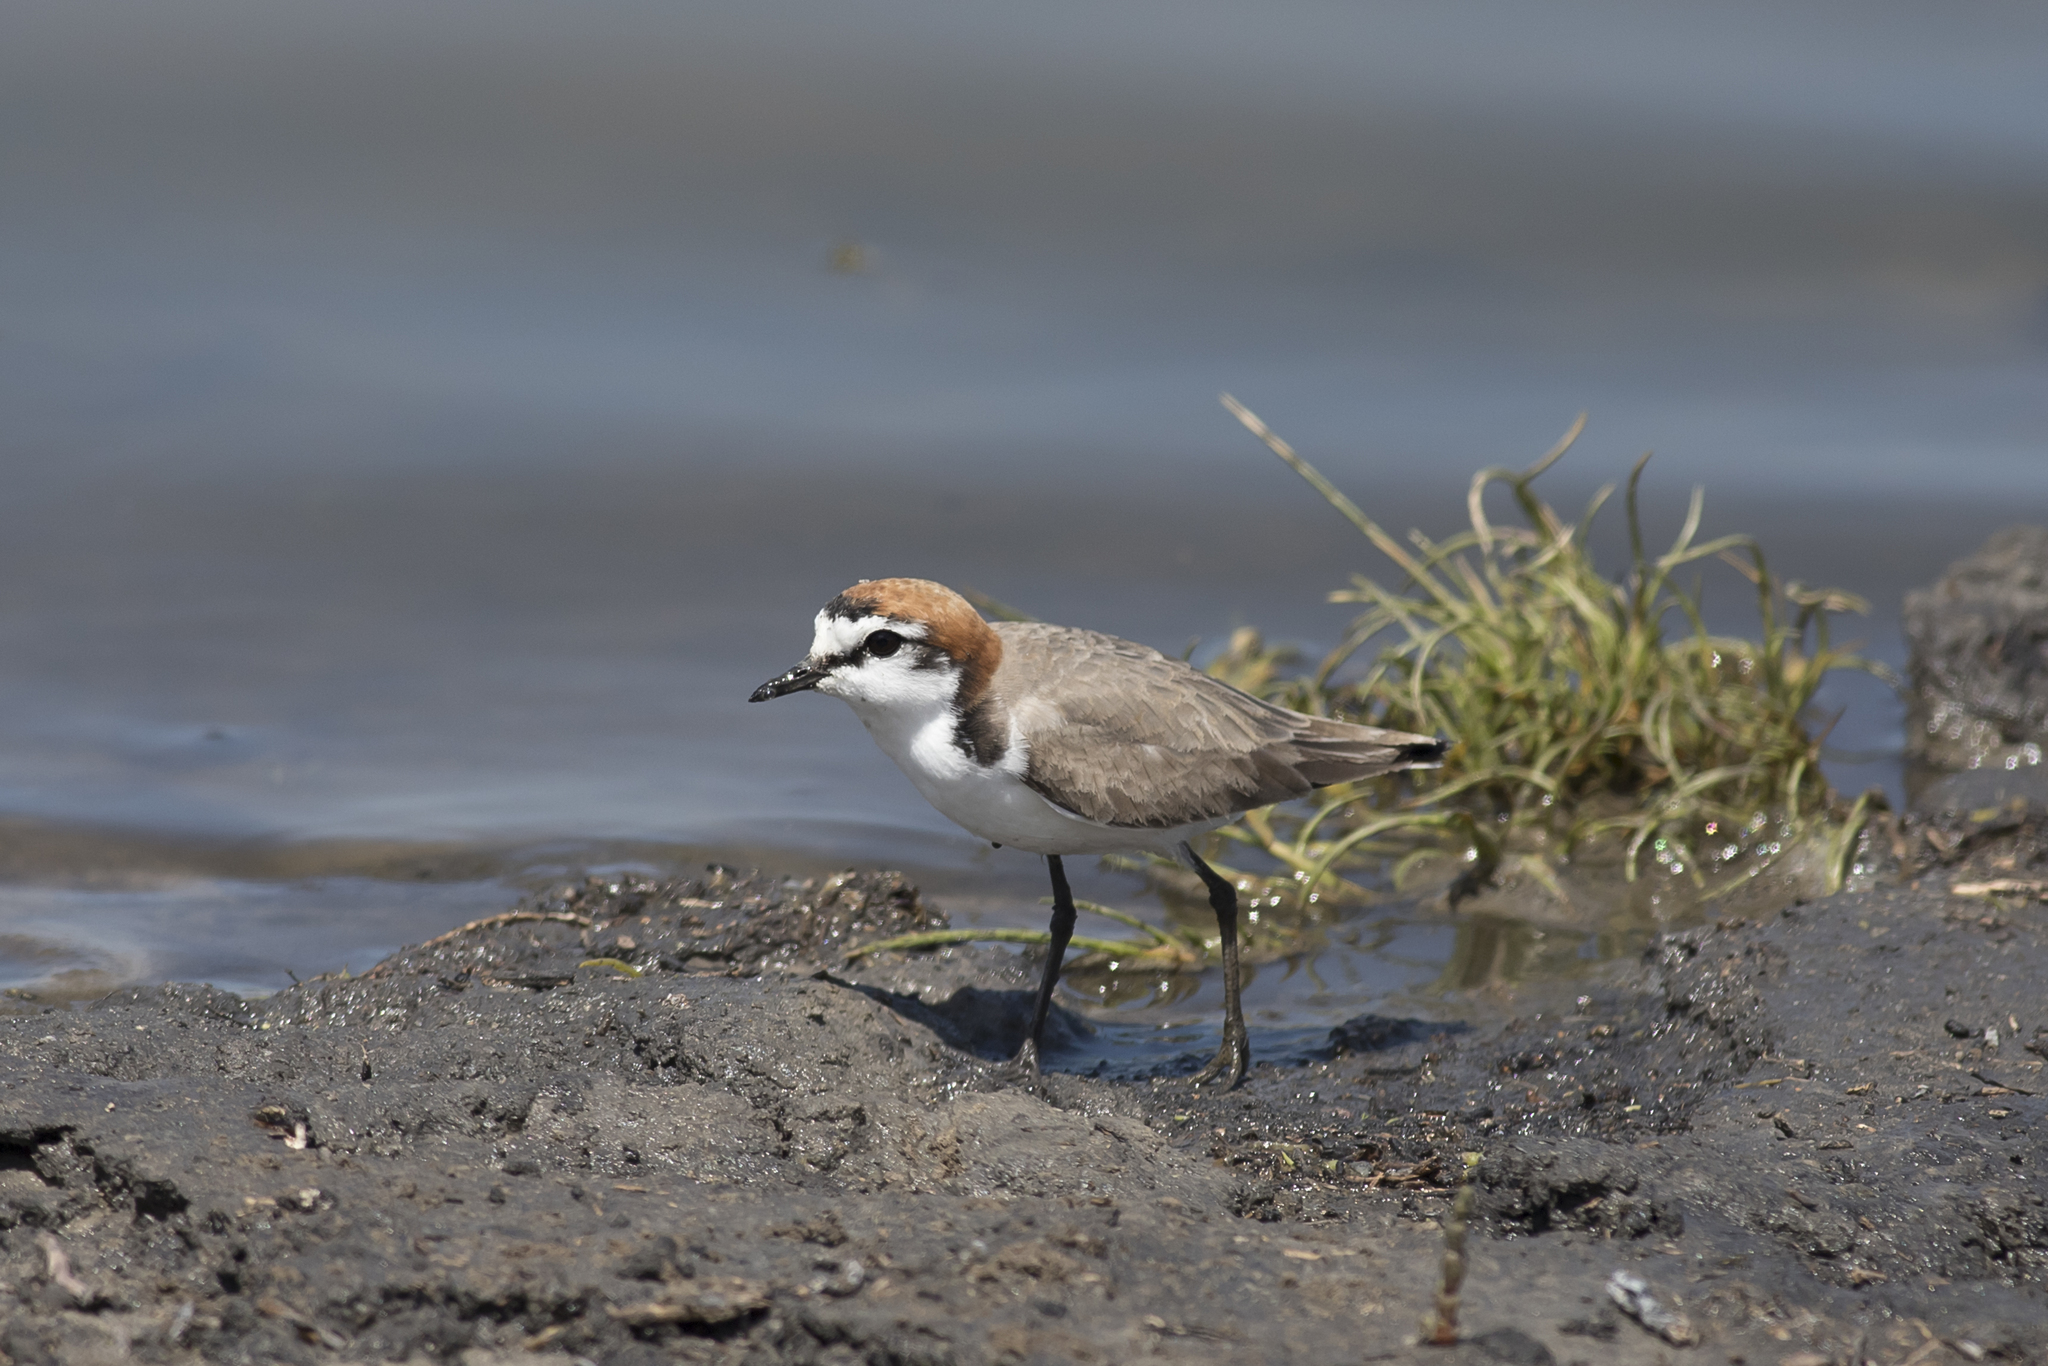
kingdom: Animalia
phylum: Chordata
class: Aves
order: Charadriiformes
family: Charadriidae
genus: Anarhynchus
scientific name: Anarhynchus
